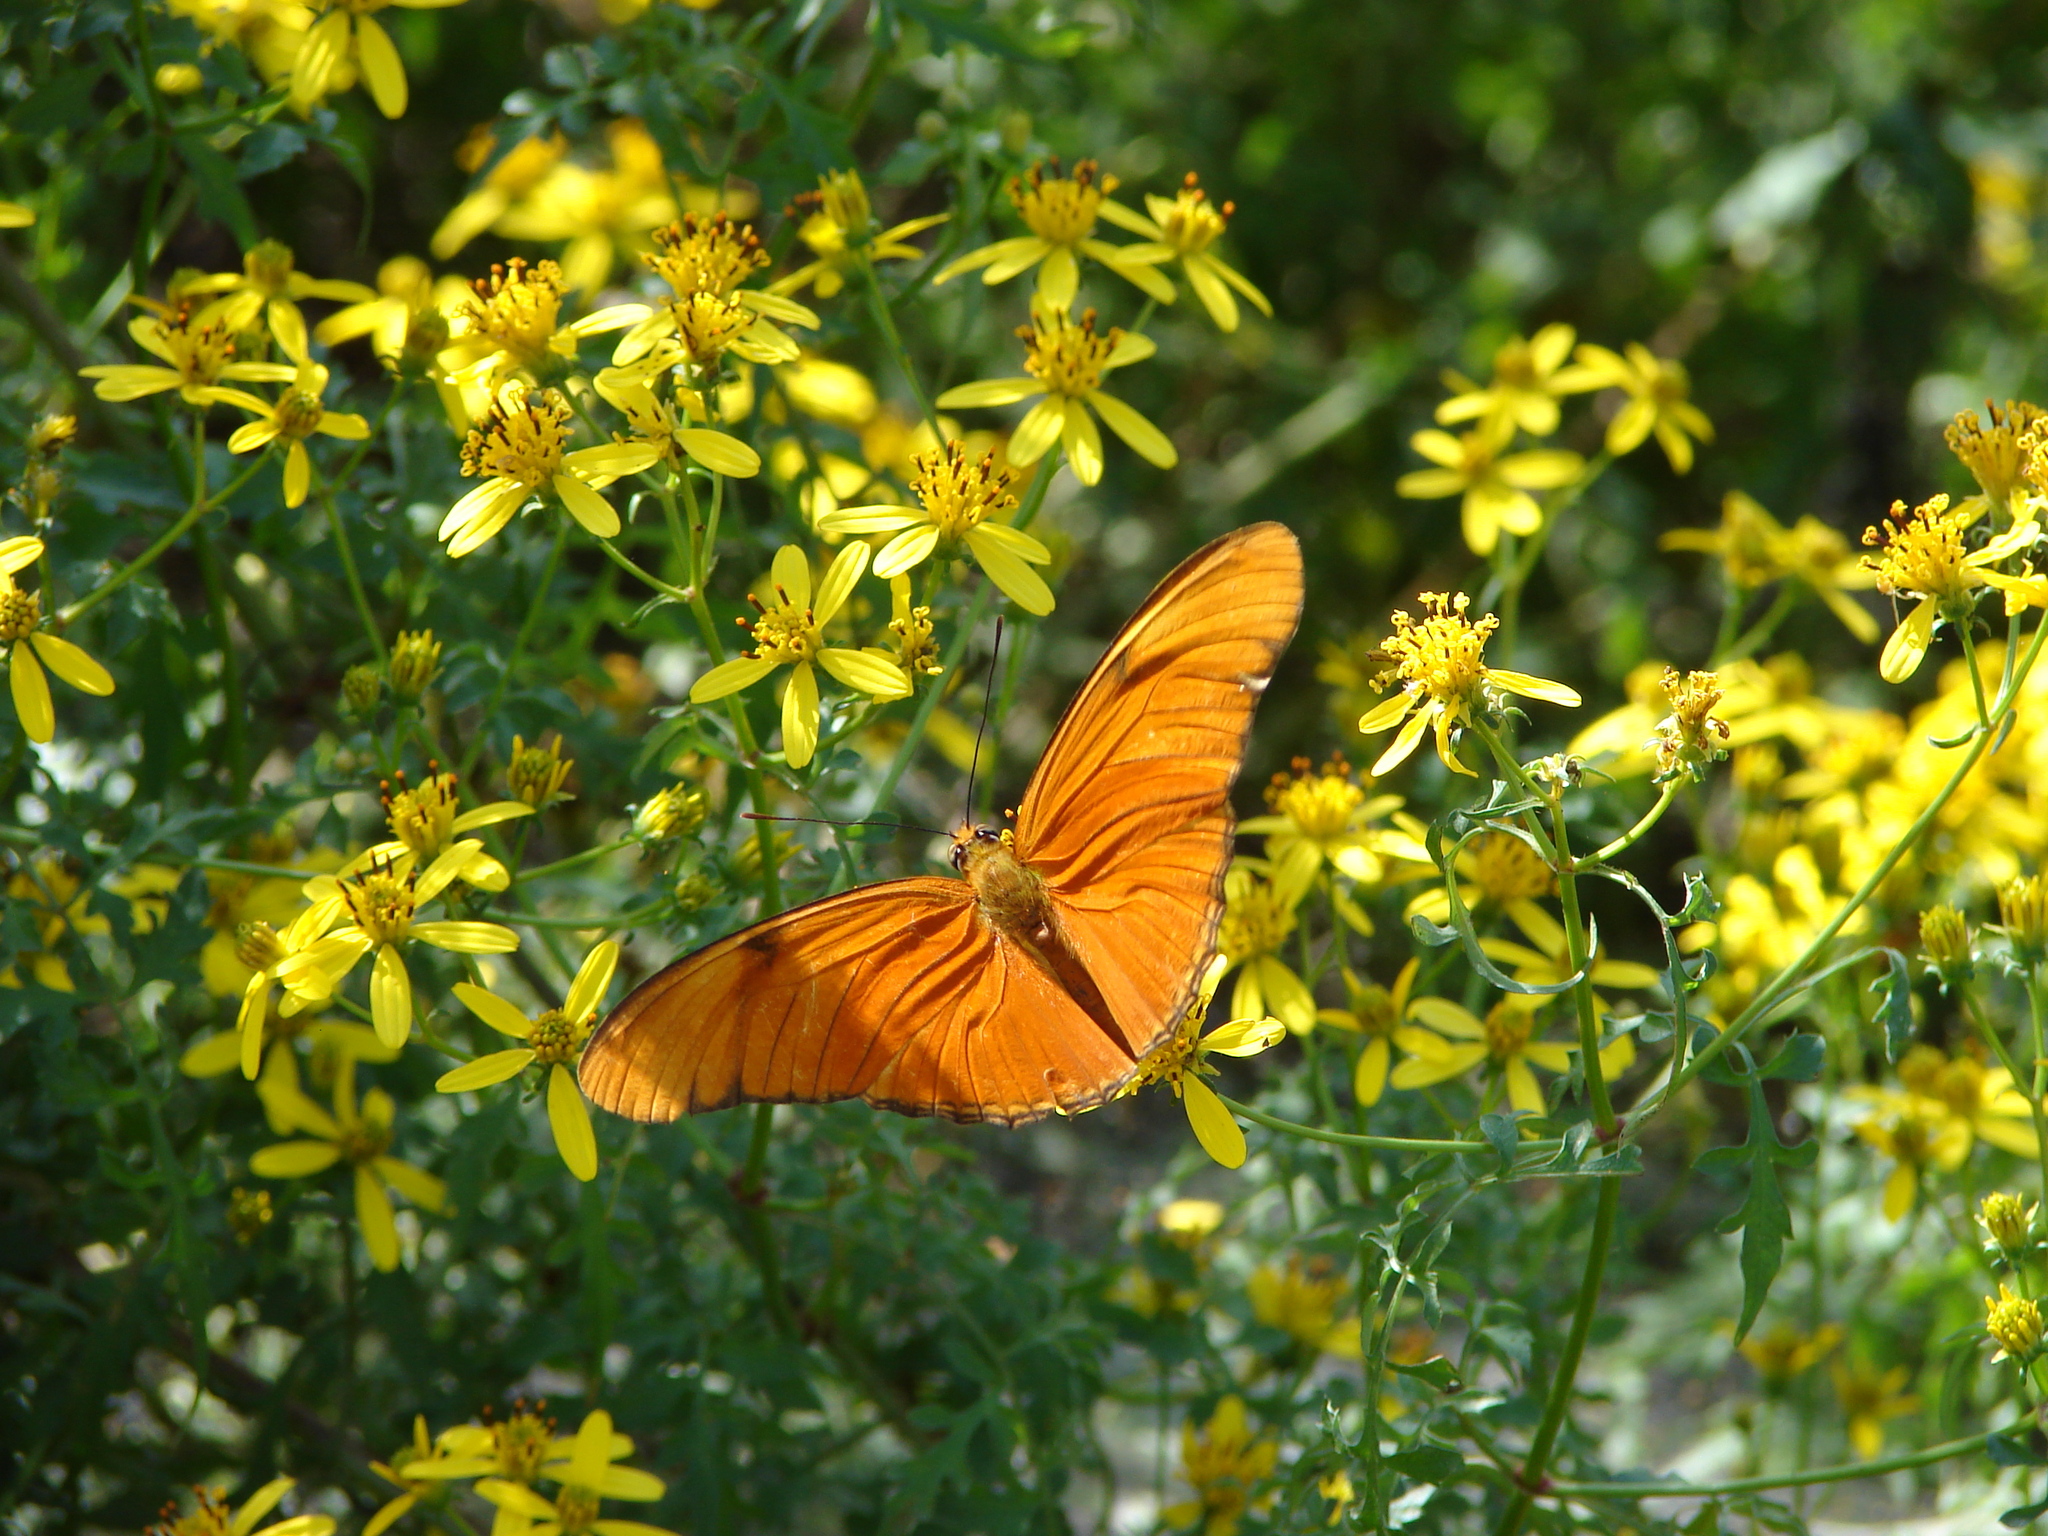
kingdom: Animalia
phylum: Arthropoda
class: Insecta
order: Lepidoptera
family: Nymphalidae
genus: Dryas
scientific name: Dryas iulia
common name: Flambeau
